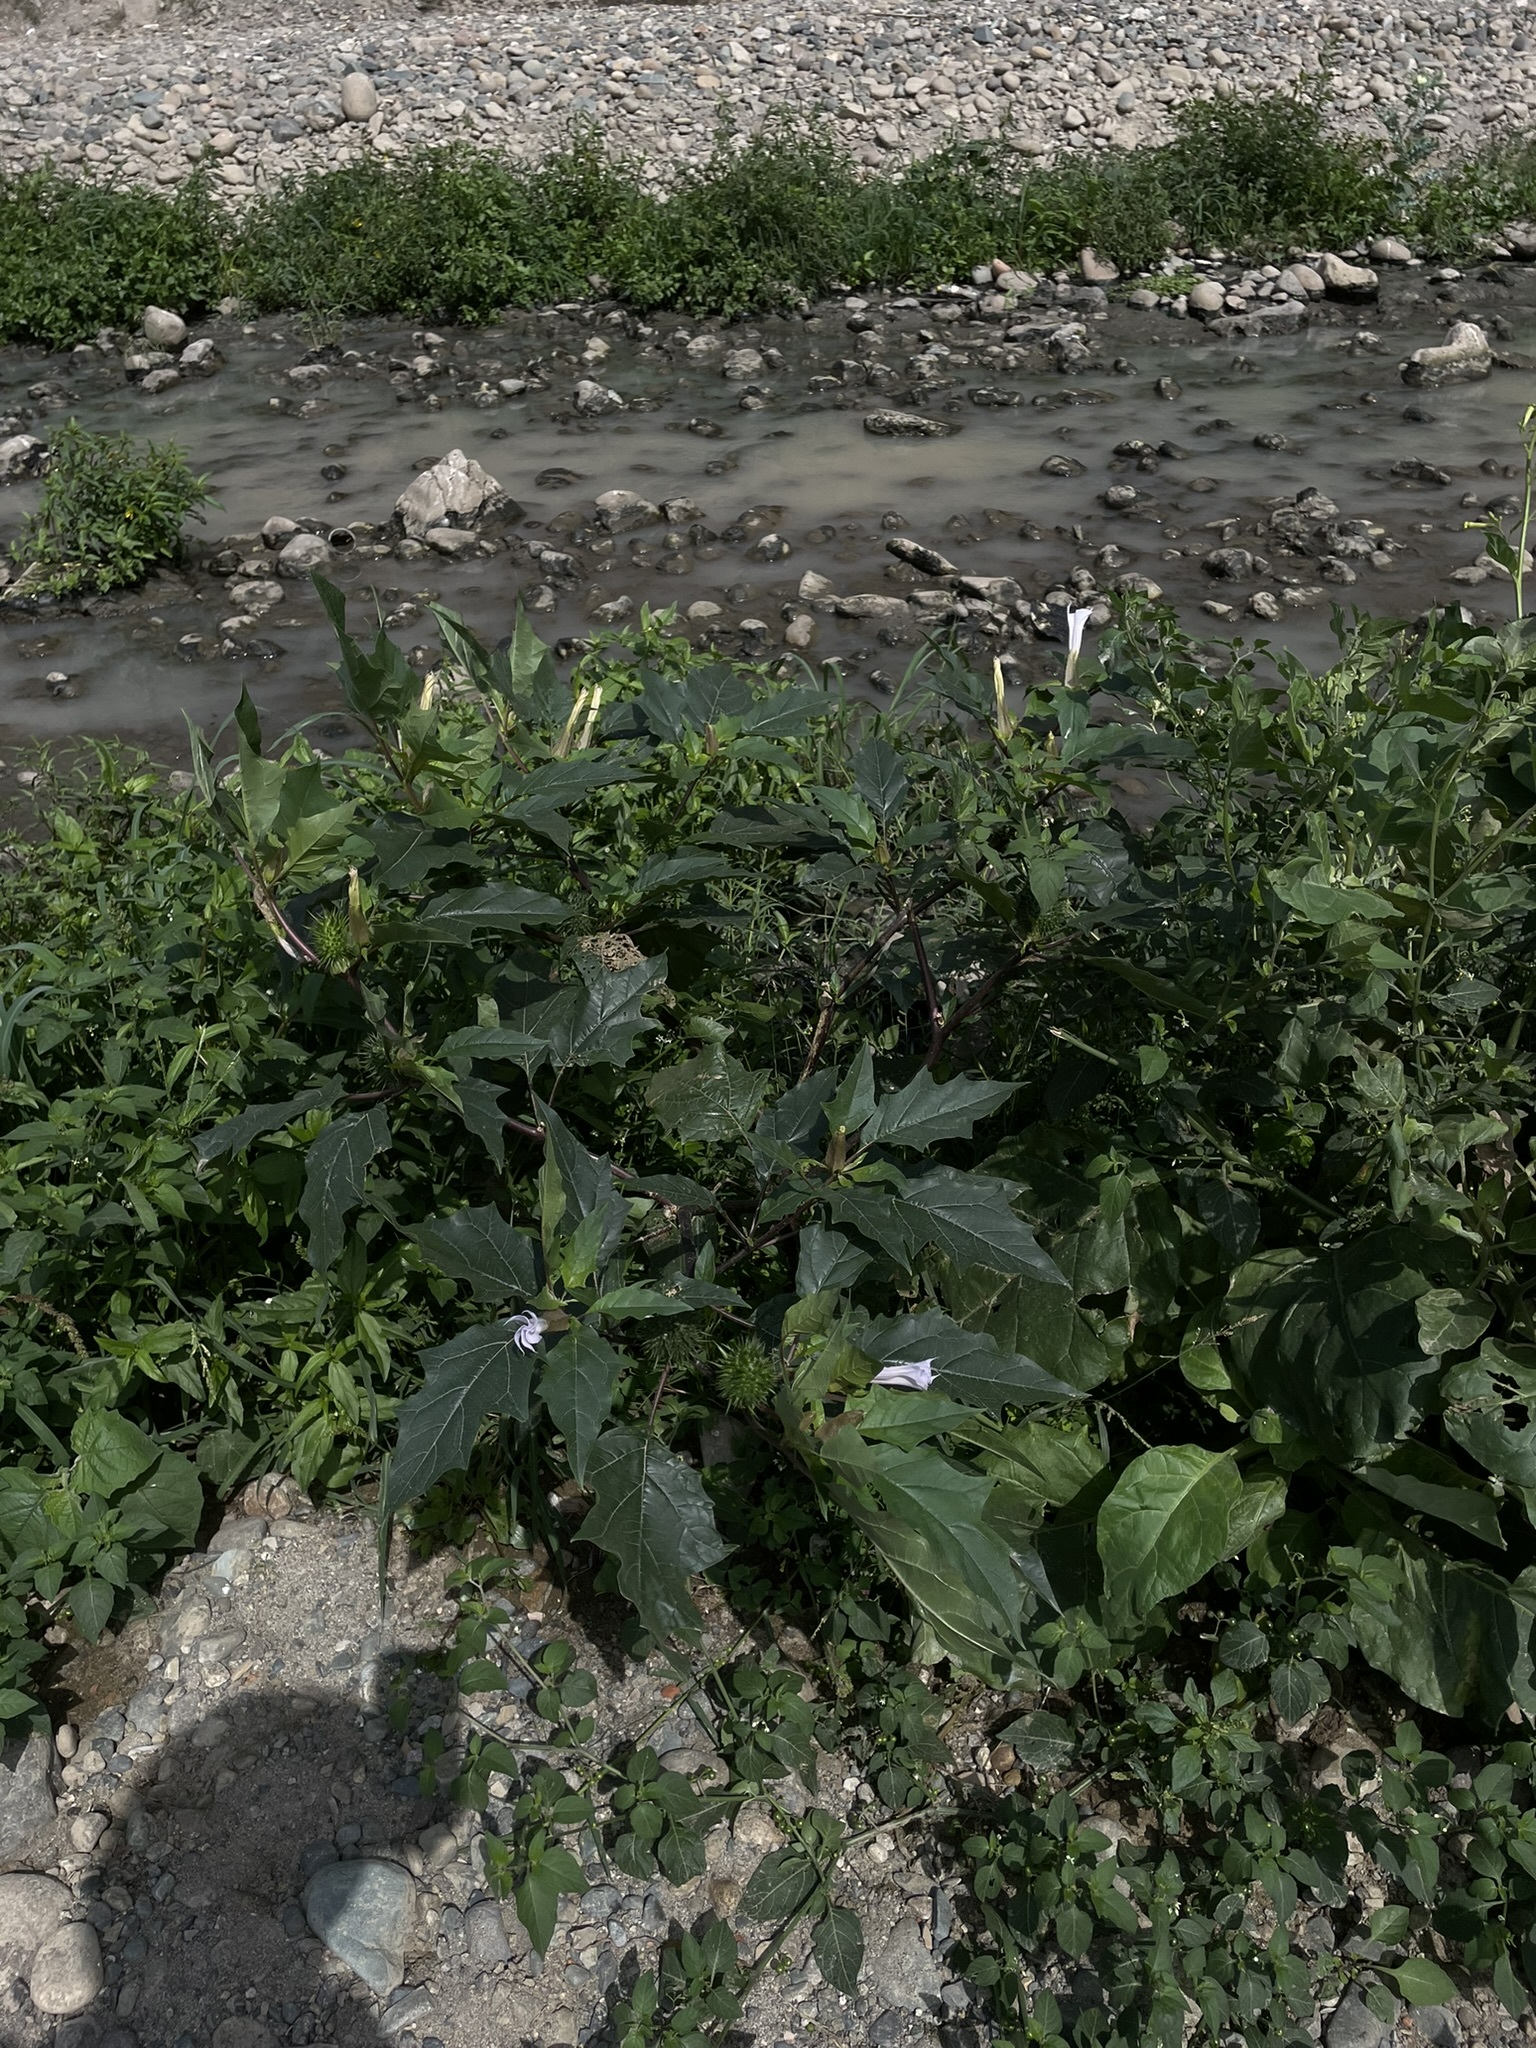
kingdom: Plantae
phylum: Tracheophyta
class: Magnoliopsida
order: Solanales
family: Solanaceae
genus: Datura
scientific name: Datura stramonium
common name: Thorn-apple
